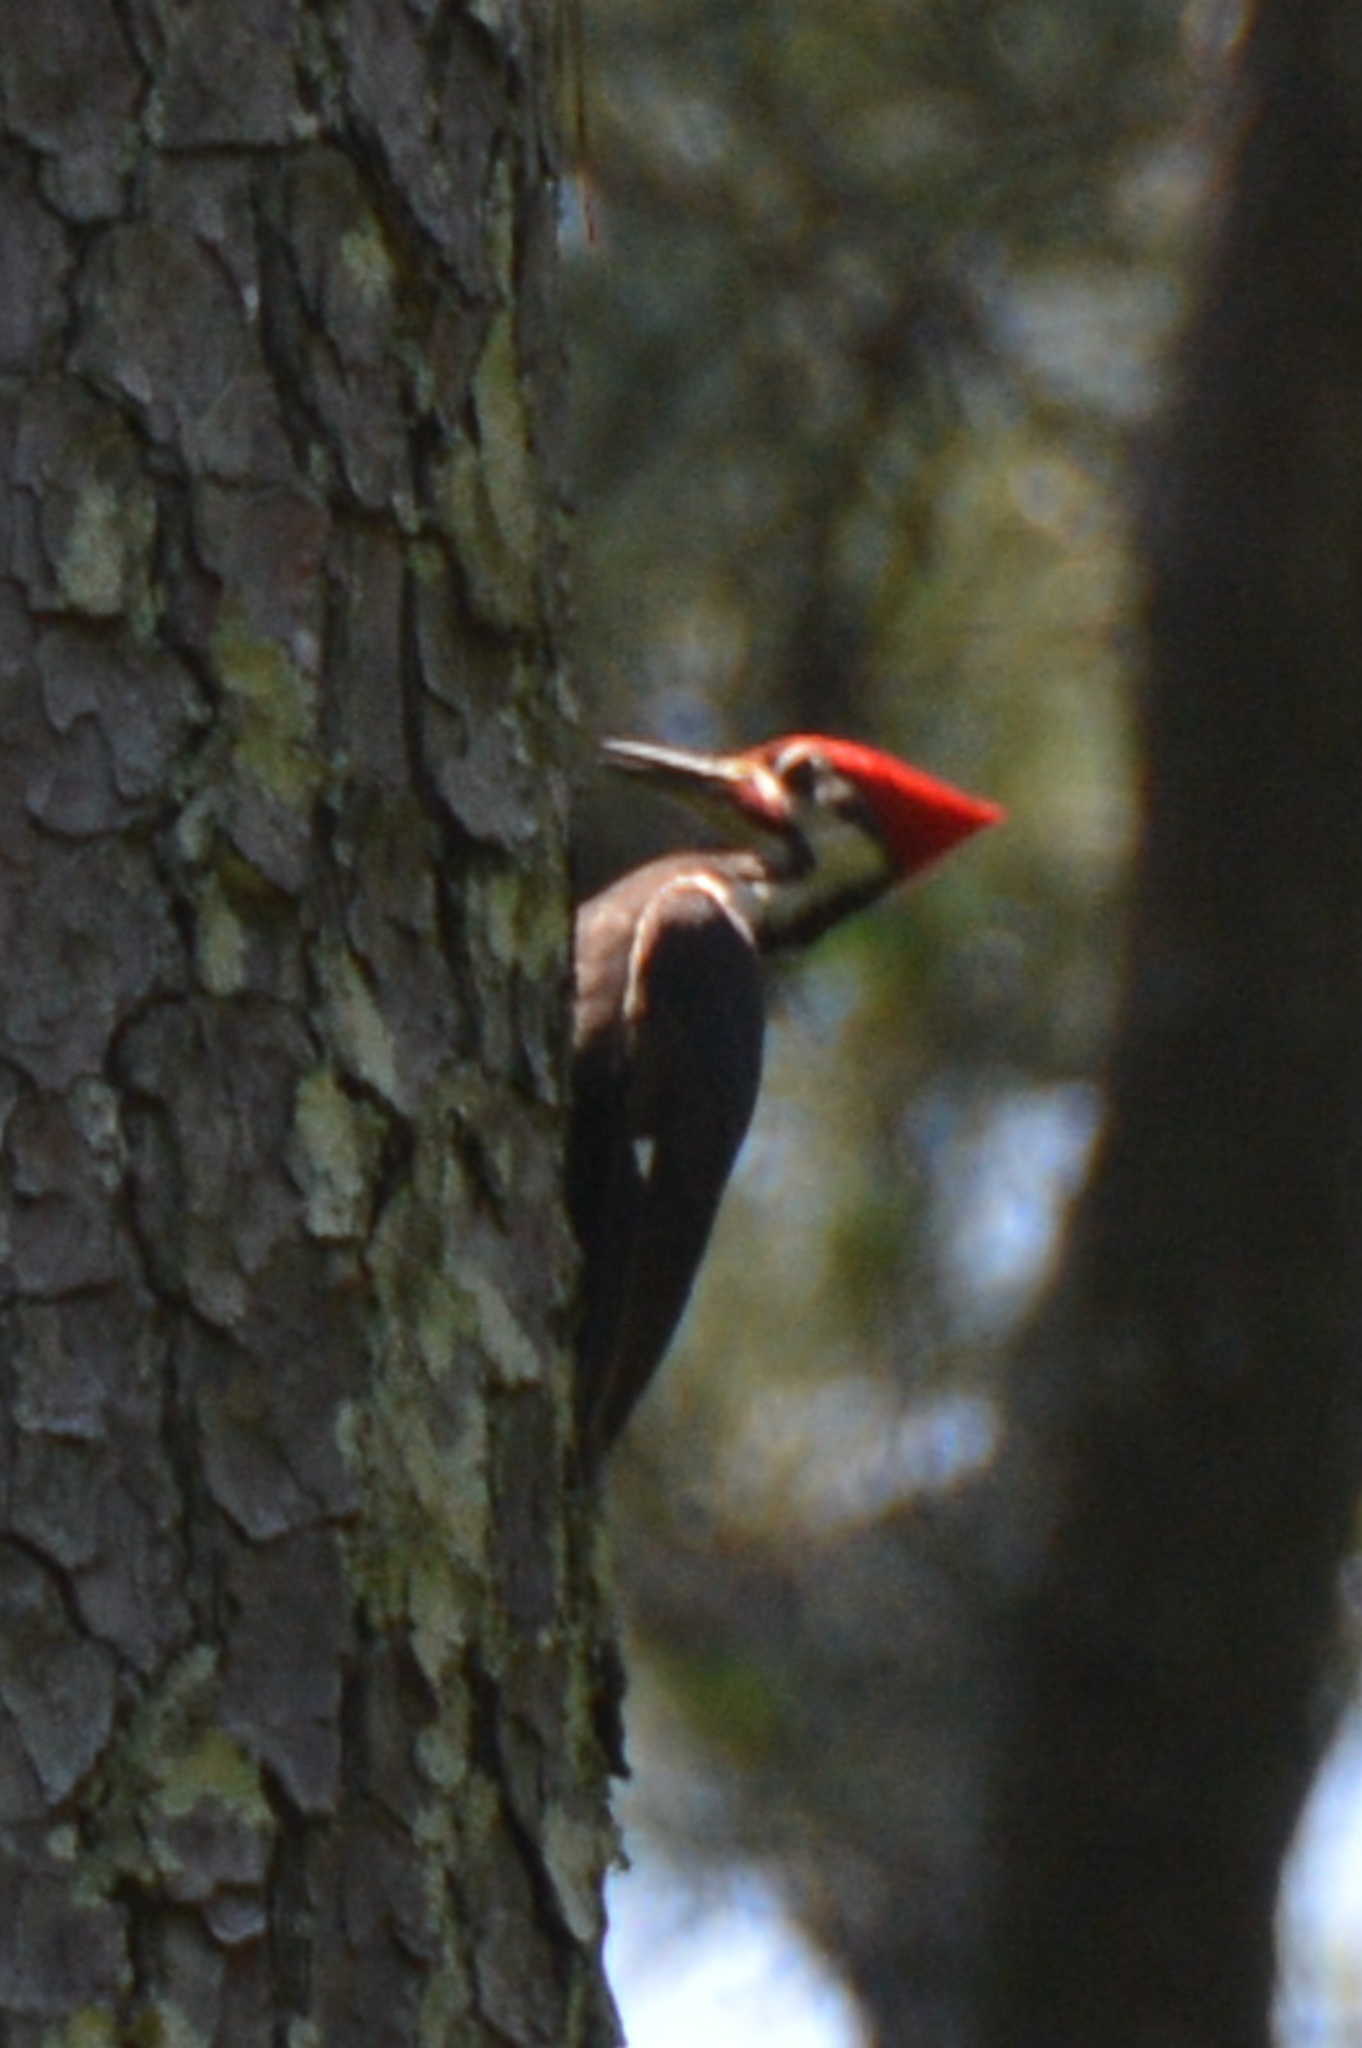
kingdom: Animalia
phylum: Chordata
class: Aves
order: Piciformes
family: Picidae
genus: Dryocopus
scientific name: Dryocopus pileatus
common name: Pileated woodpecker
